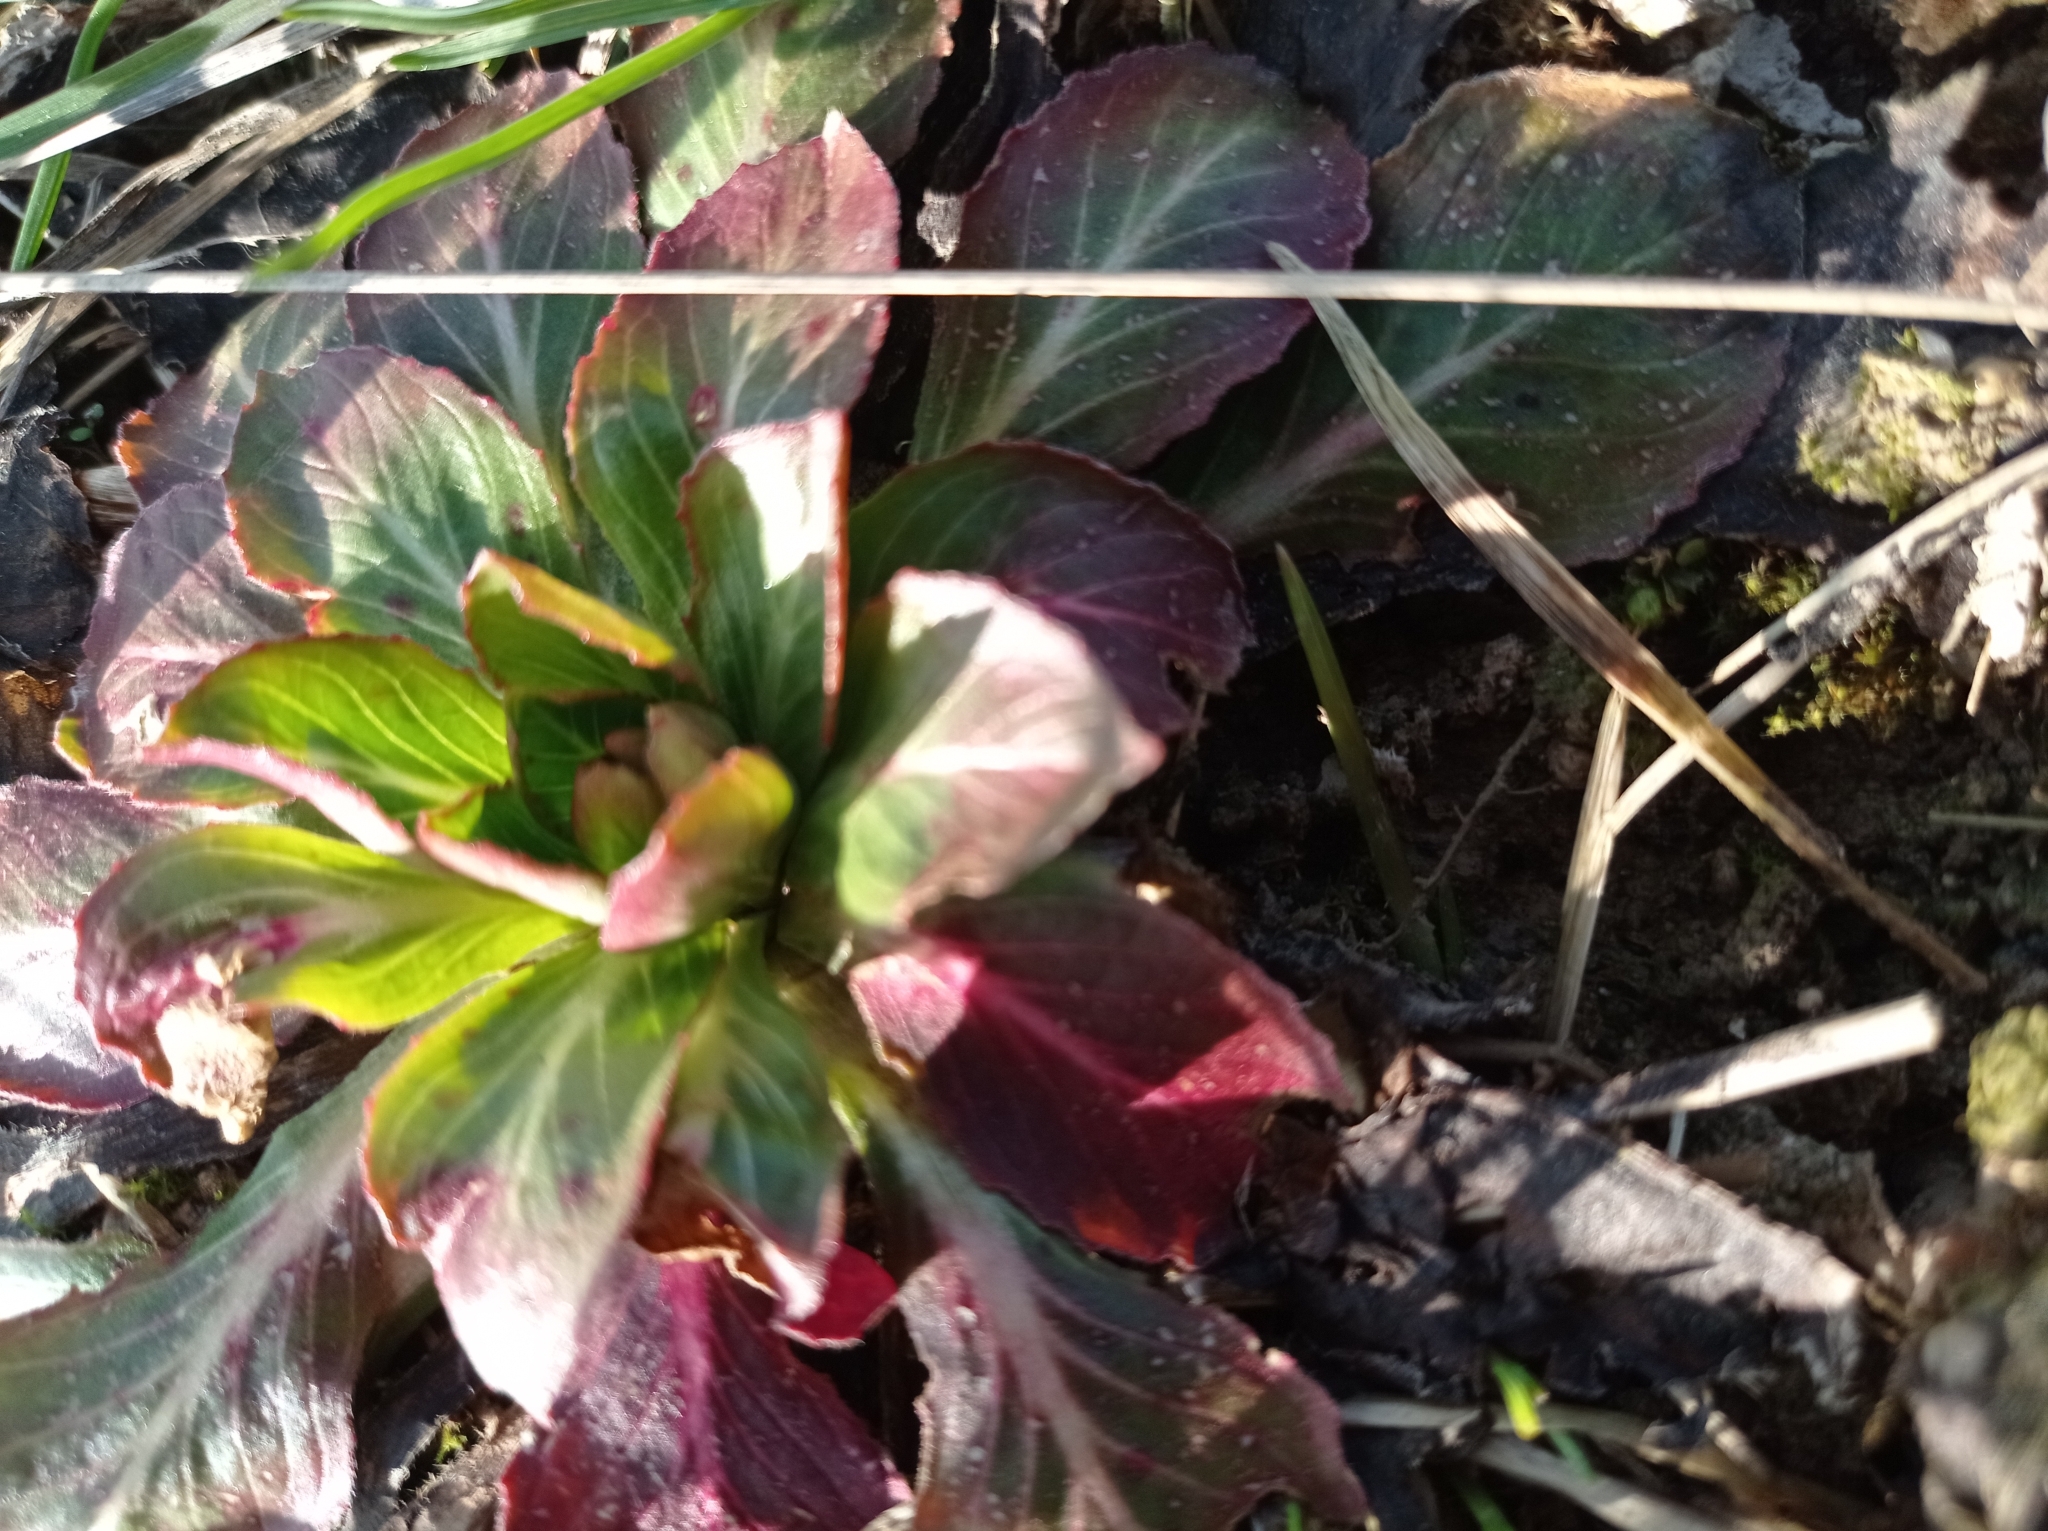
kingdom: Plantae
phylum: Tracheophyta
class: Magnoliopsida
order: Myrtales
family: Onagraceae
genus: Oenothera
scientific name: Oenothera biennis
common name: Common evening-primrose
